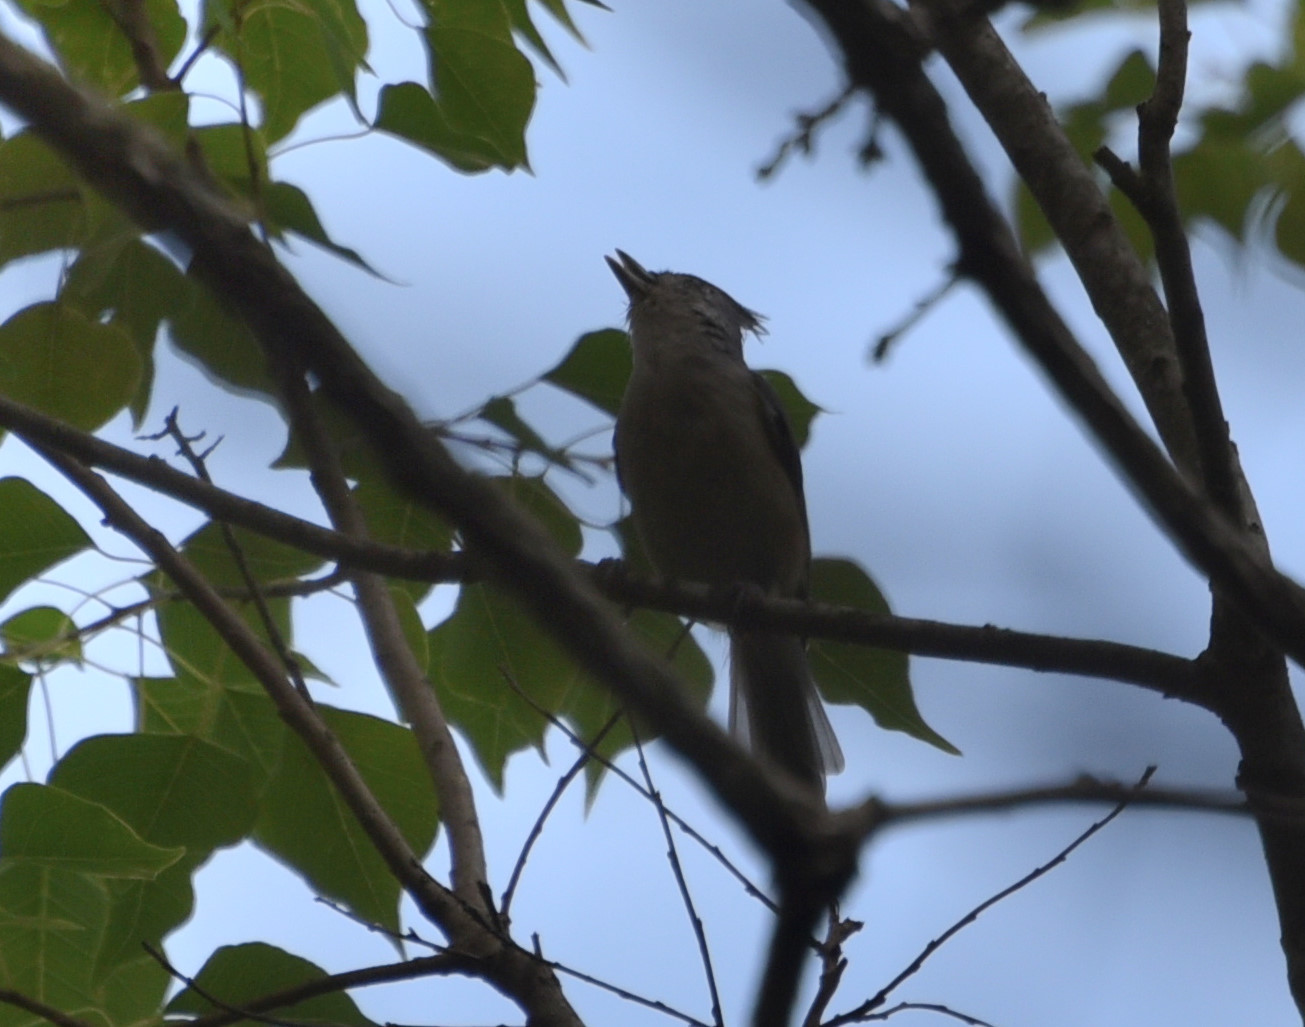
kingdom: Animalia
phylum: Chordata
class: Aves
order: Passeriformes
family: Paridae
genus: Baeolophus
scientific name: Baeolophus bicolor
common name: Tufted titmouse
